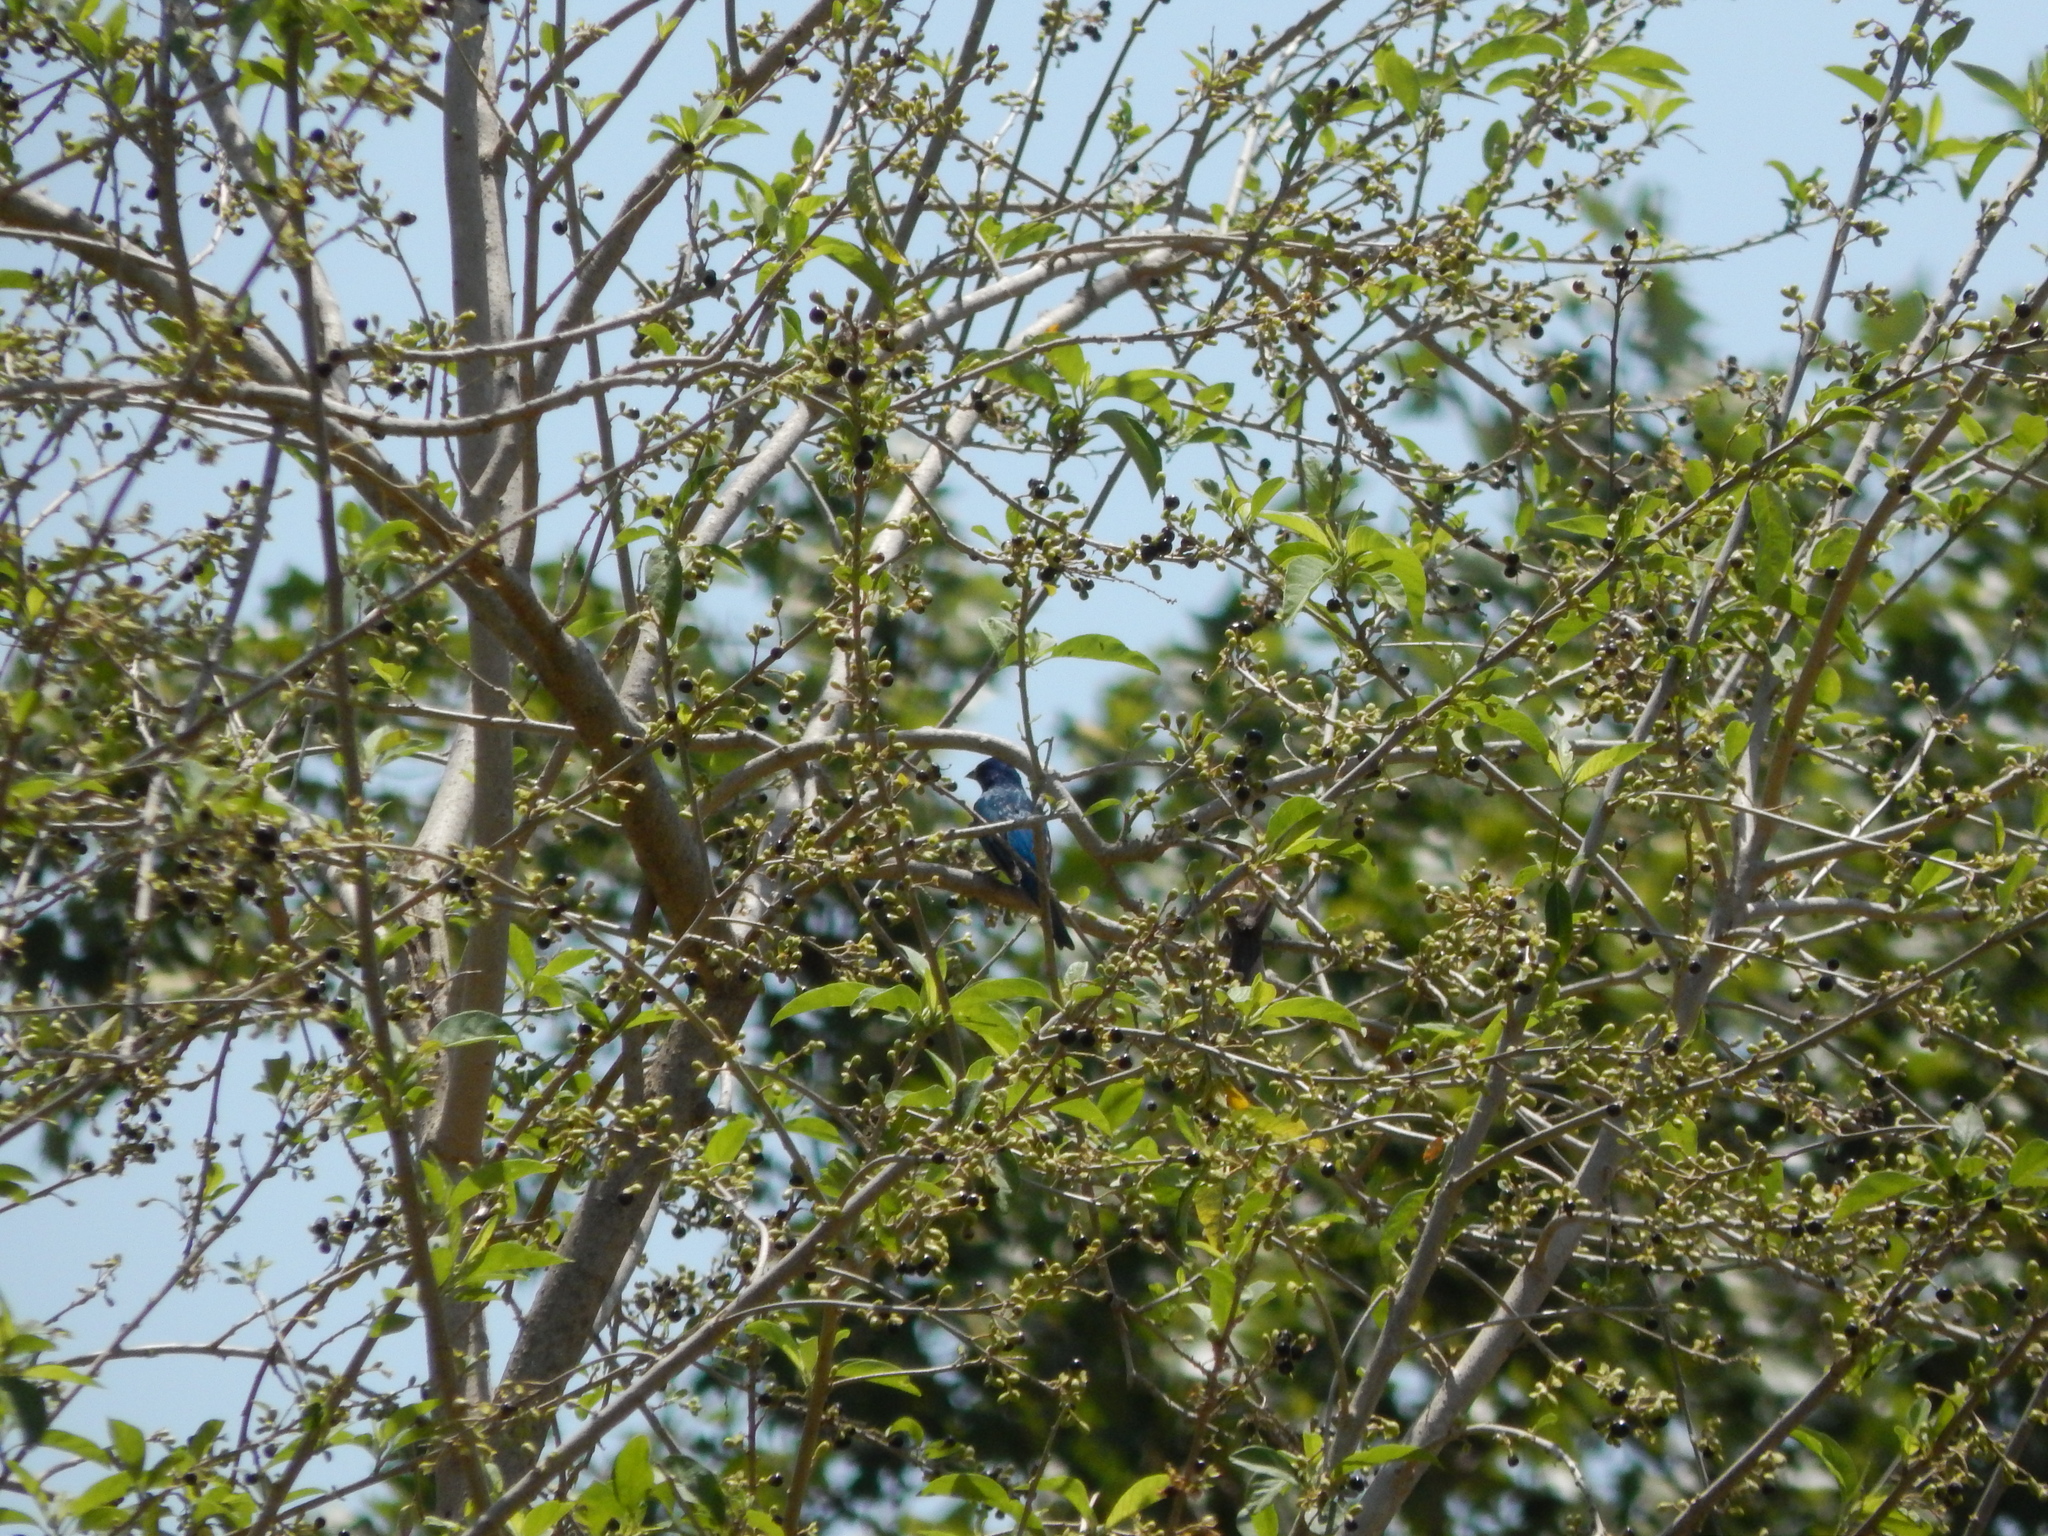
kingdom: Animalia
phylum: Chordata
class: Aves
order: Passeriformes
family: Cardinalidae
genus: Passerina
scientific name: Passerina cyanea
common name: Indigo bunting
